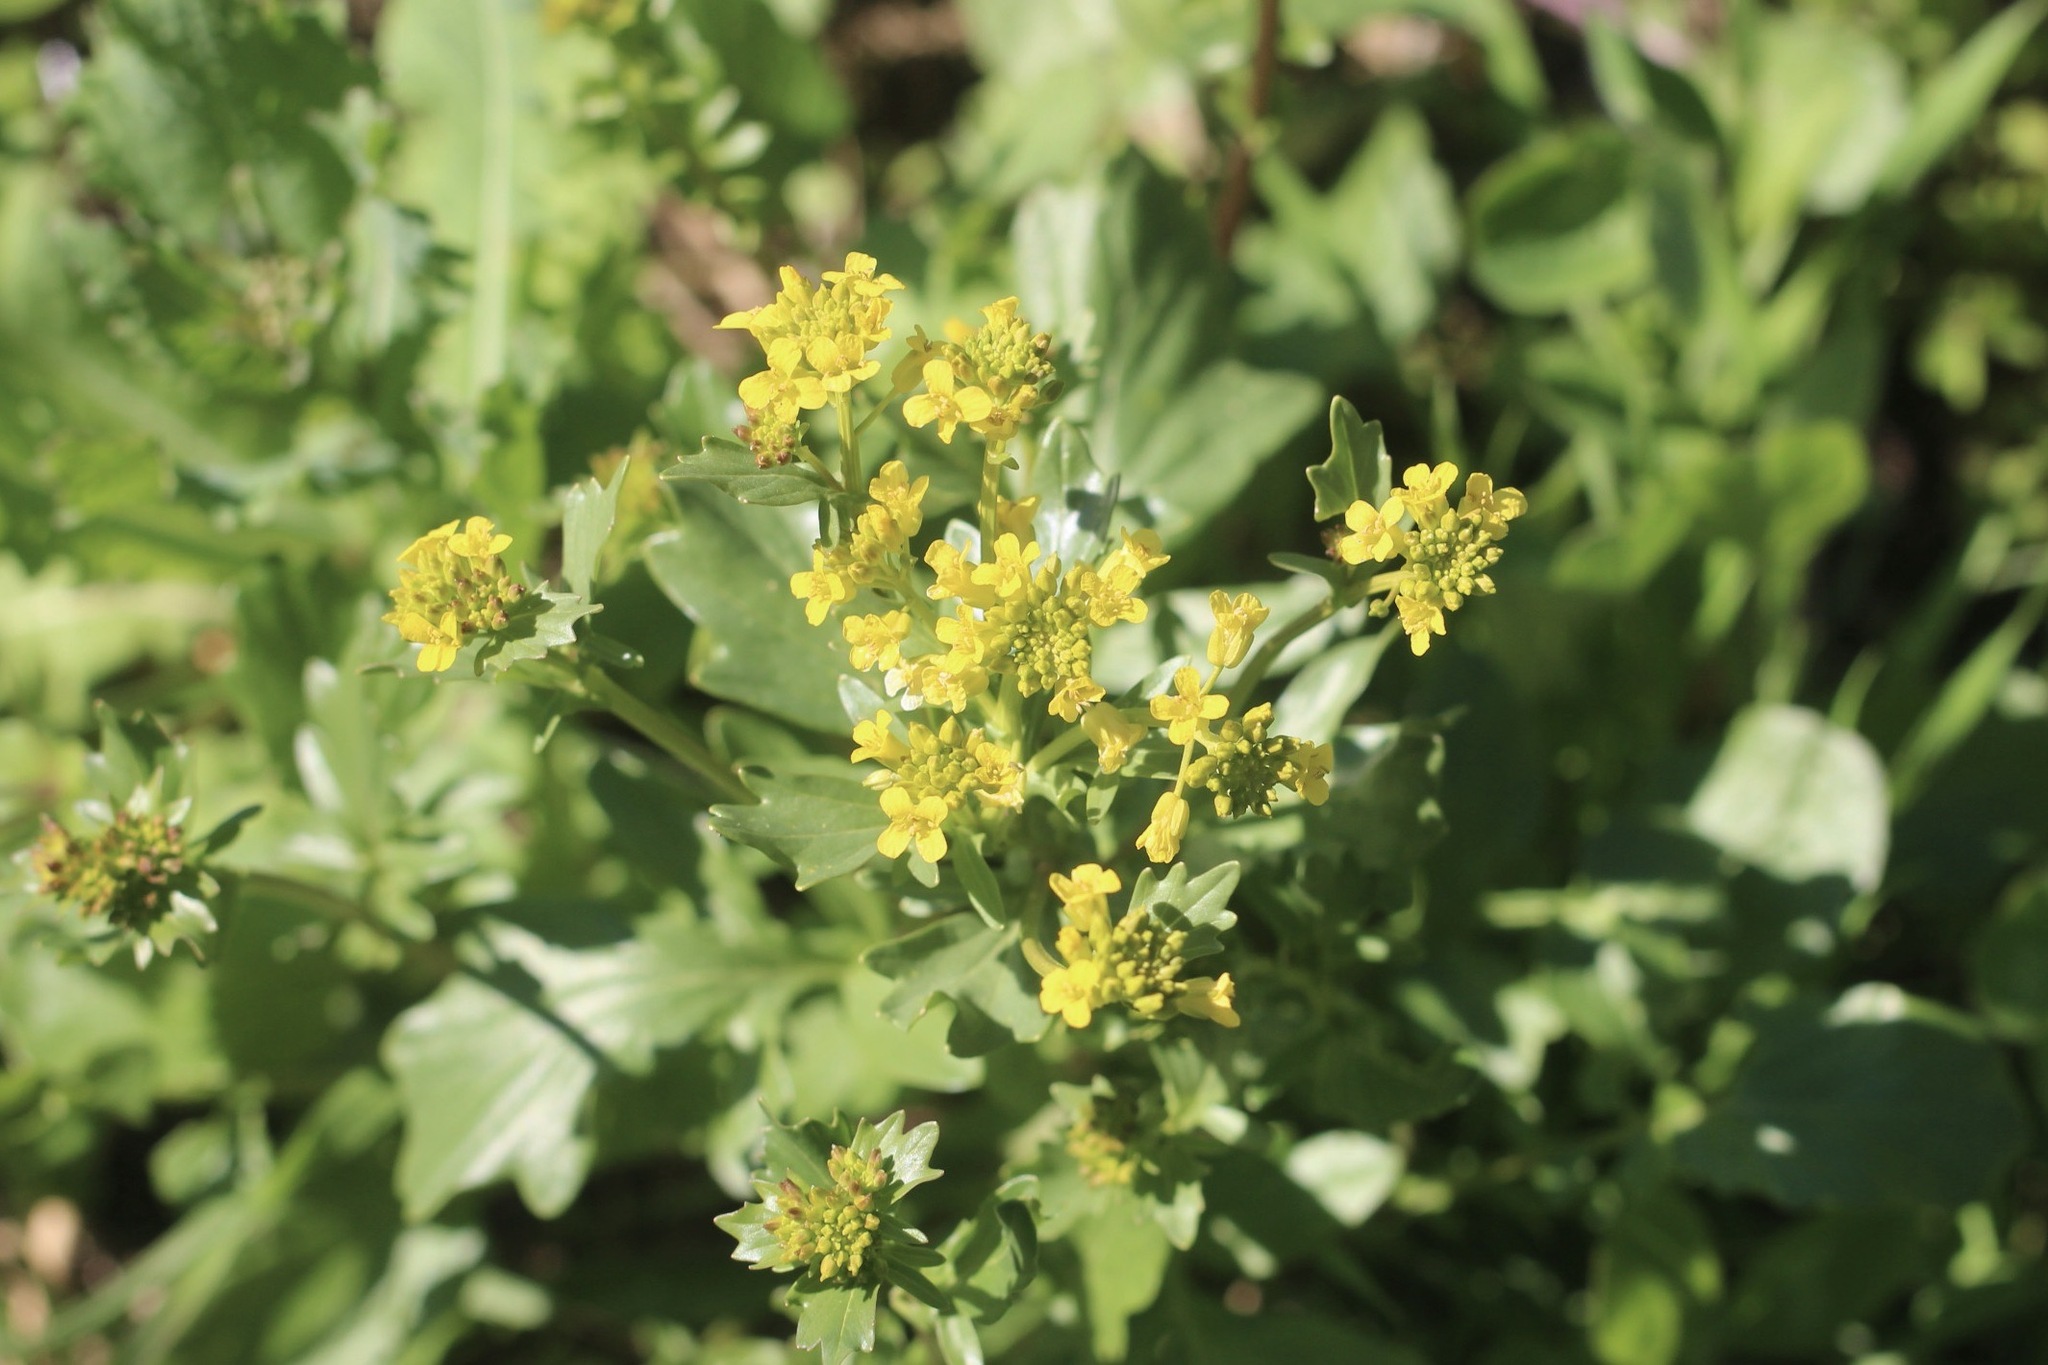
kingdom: Plantae
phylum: Tracheophyta
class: Magnoliopsida
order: Brassicales
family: Brassicaceae
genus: Barbarea
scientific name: Barbarea vulgaris
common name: Cressy-greens
